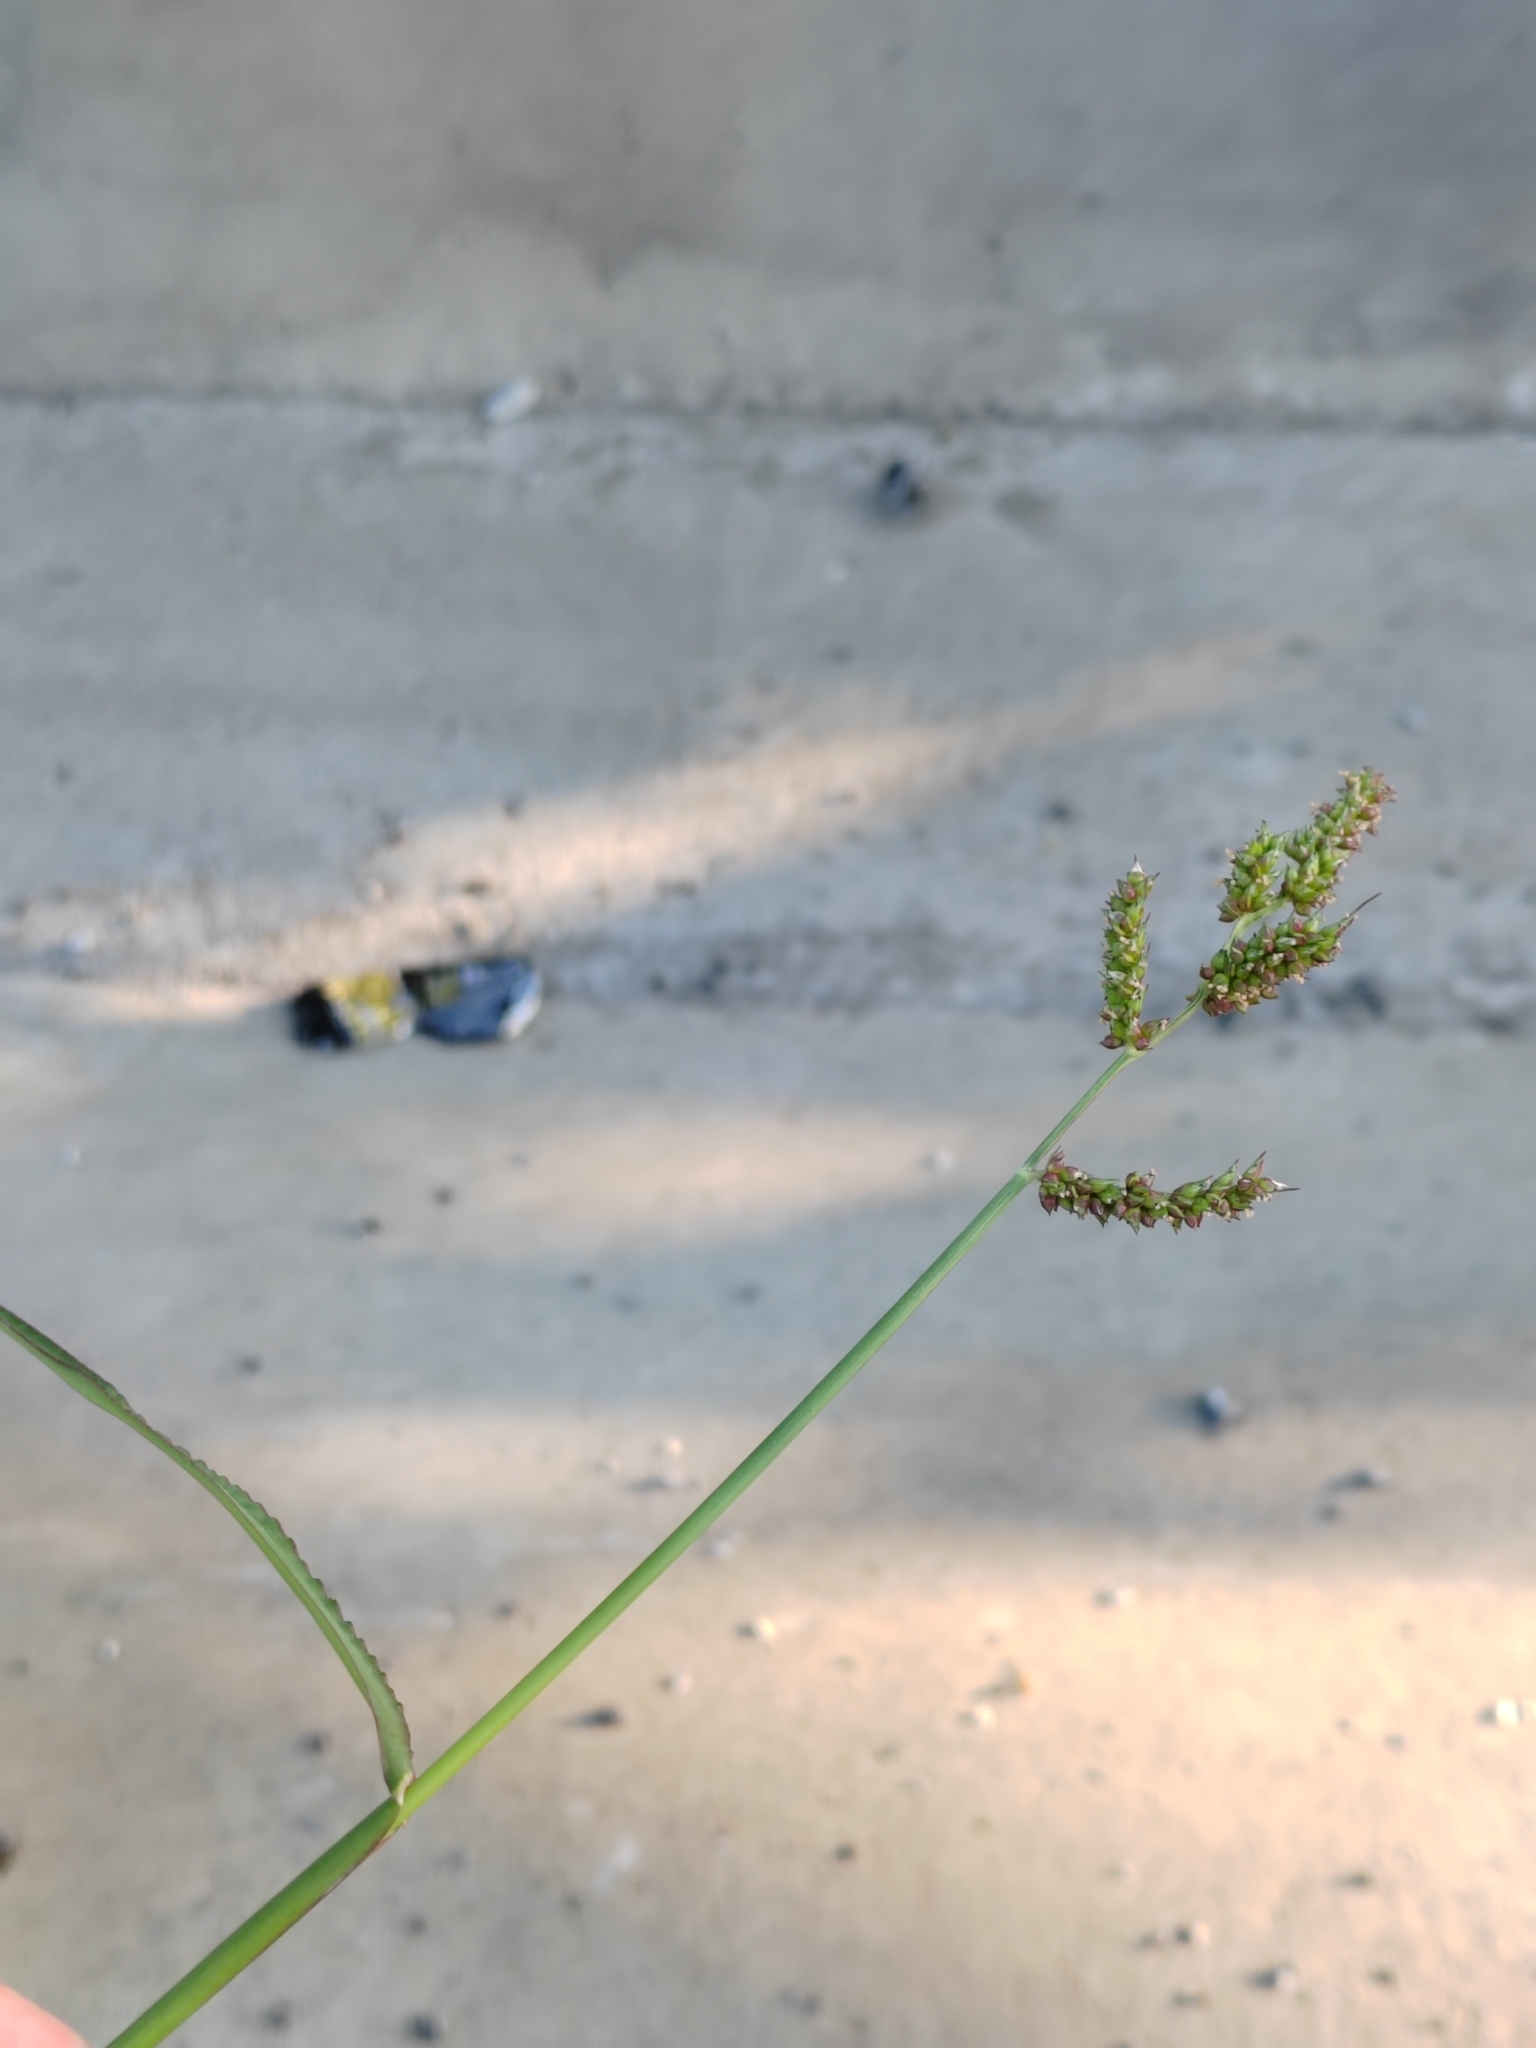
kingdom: Plantae
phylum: Tracheophyta
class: Liliopsida
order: Poales
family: Poaceae
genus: Echinochloa
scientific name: Echinochloa crus-galli
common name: Cockspur
